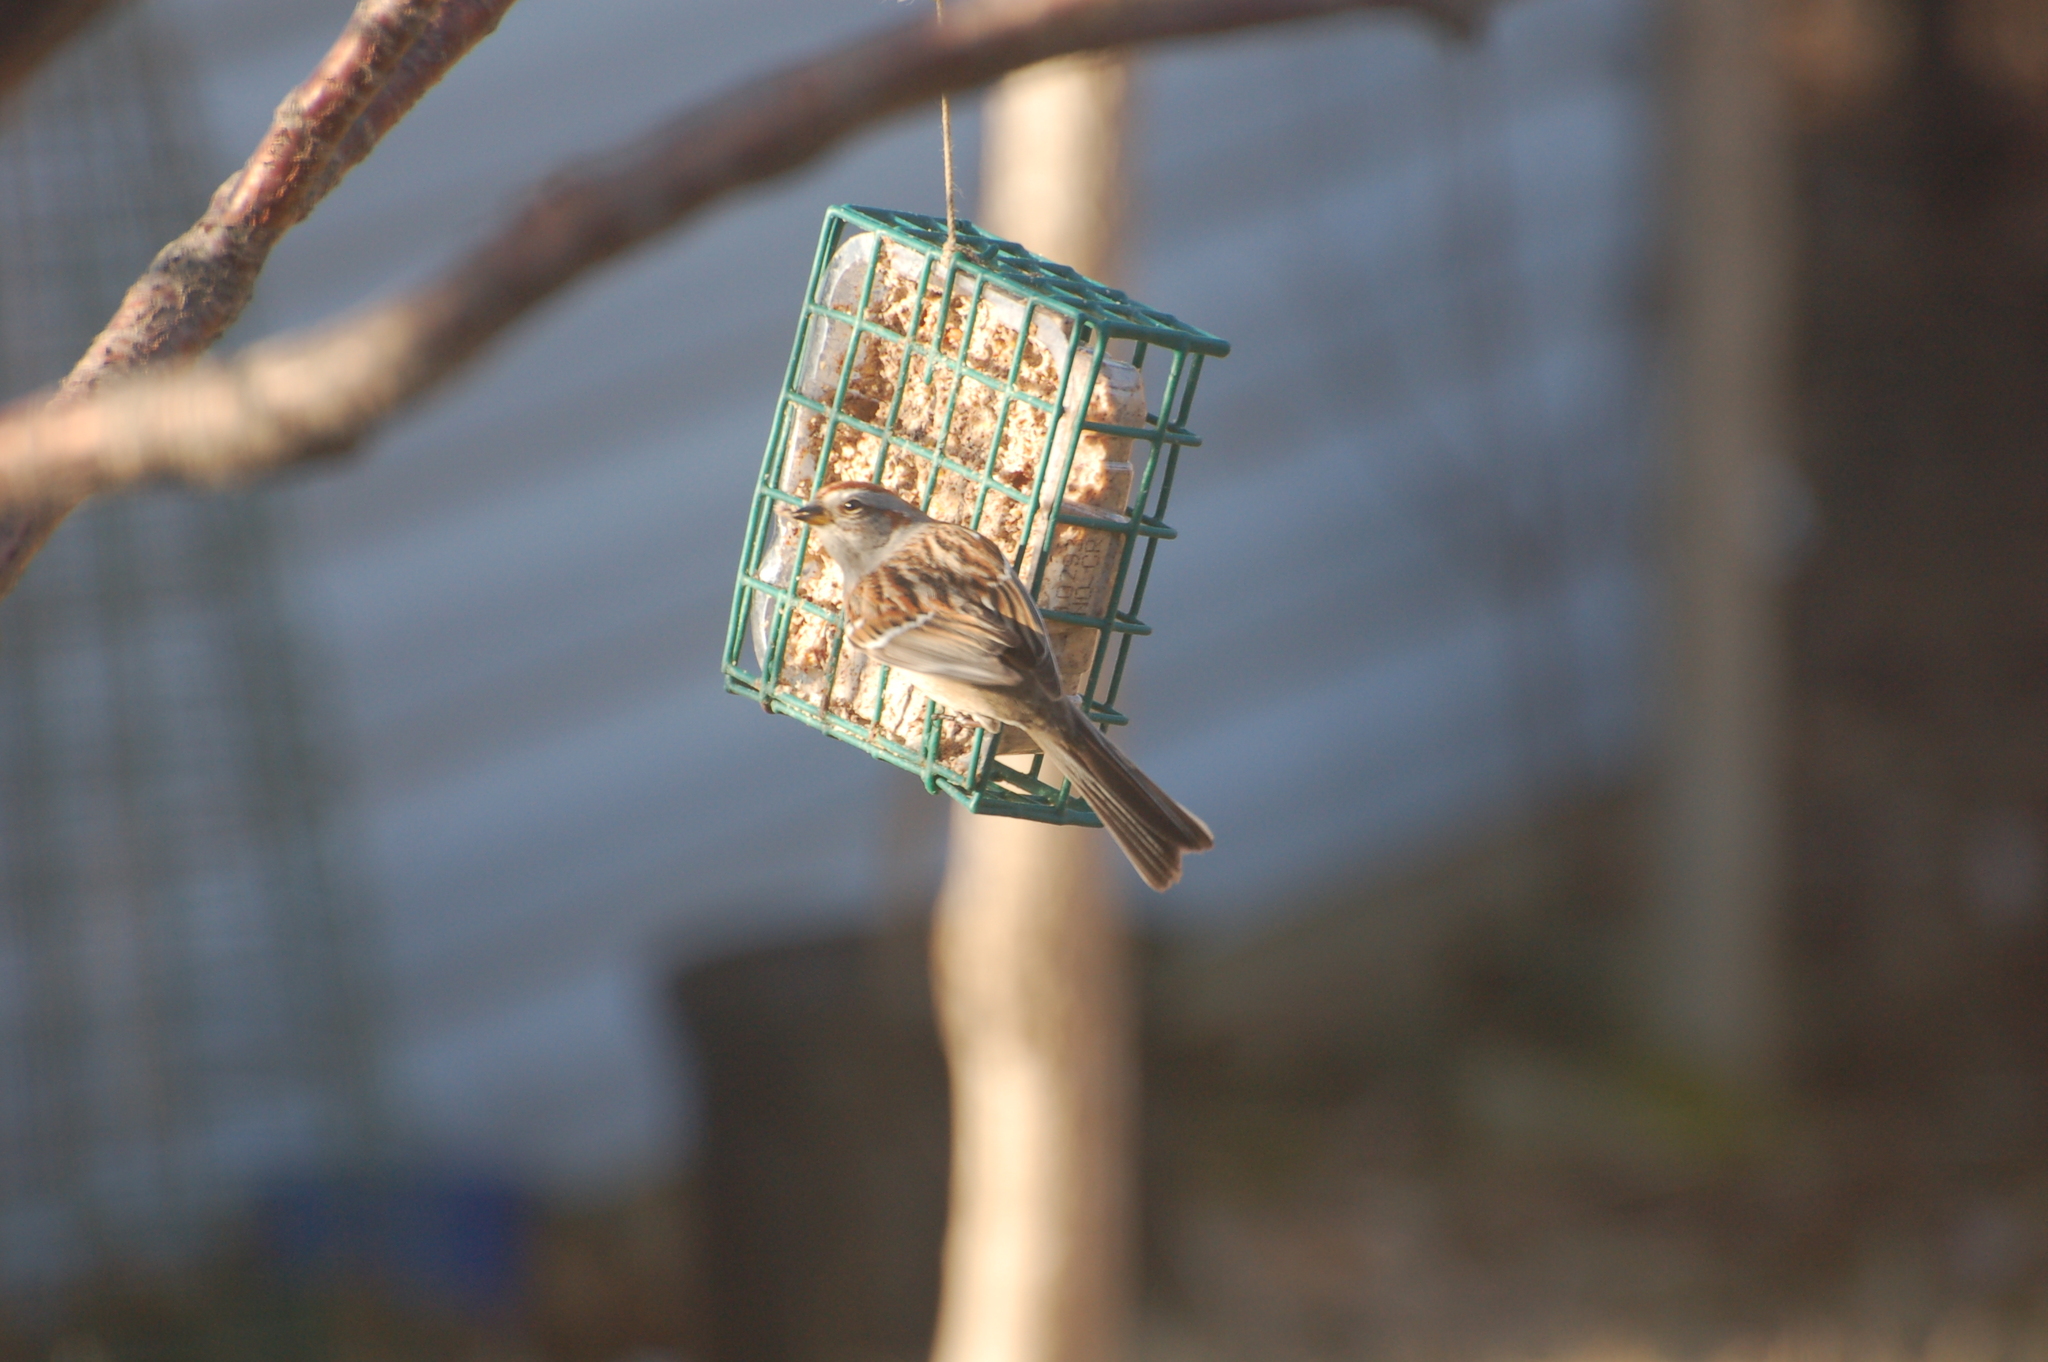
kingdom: Animalia
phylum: Chordata
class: Aves
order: Passeriformes
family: Passerellidae
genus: Spizelloides
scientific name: Spizelloides arborea
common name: American tree sparrow
